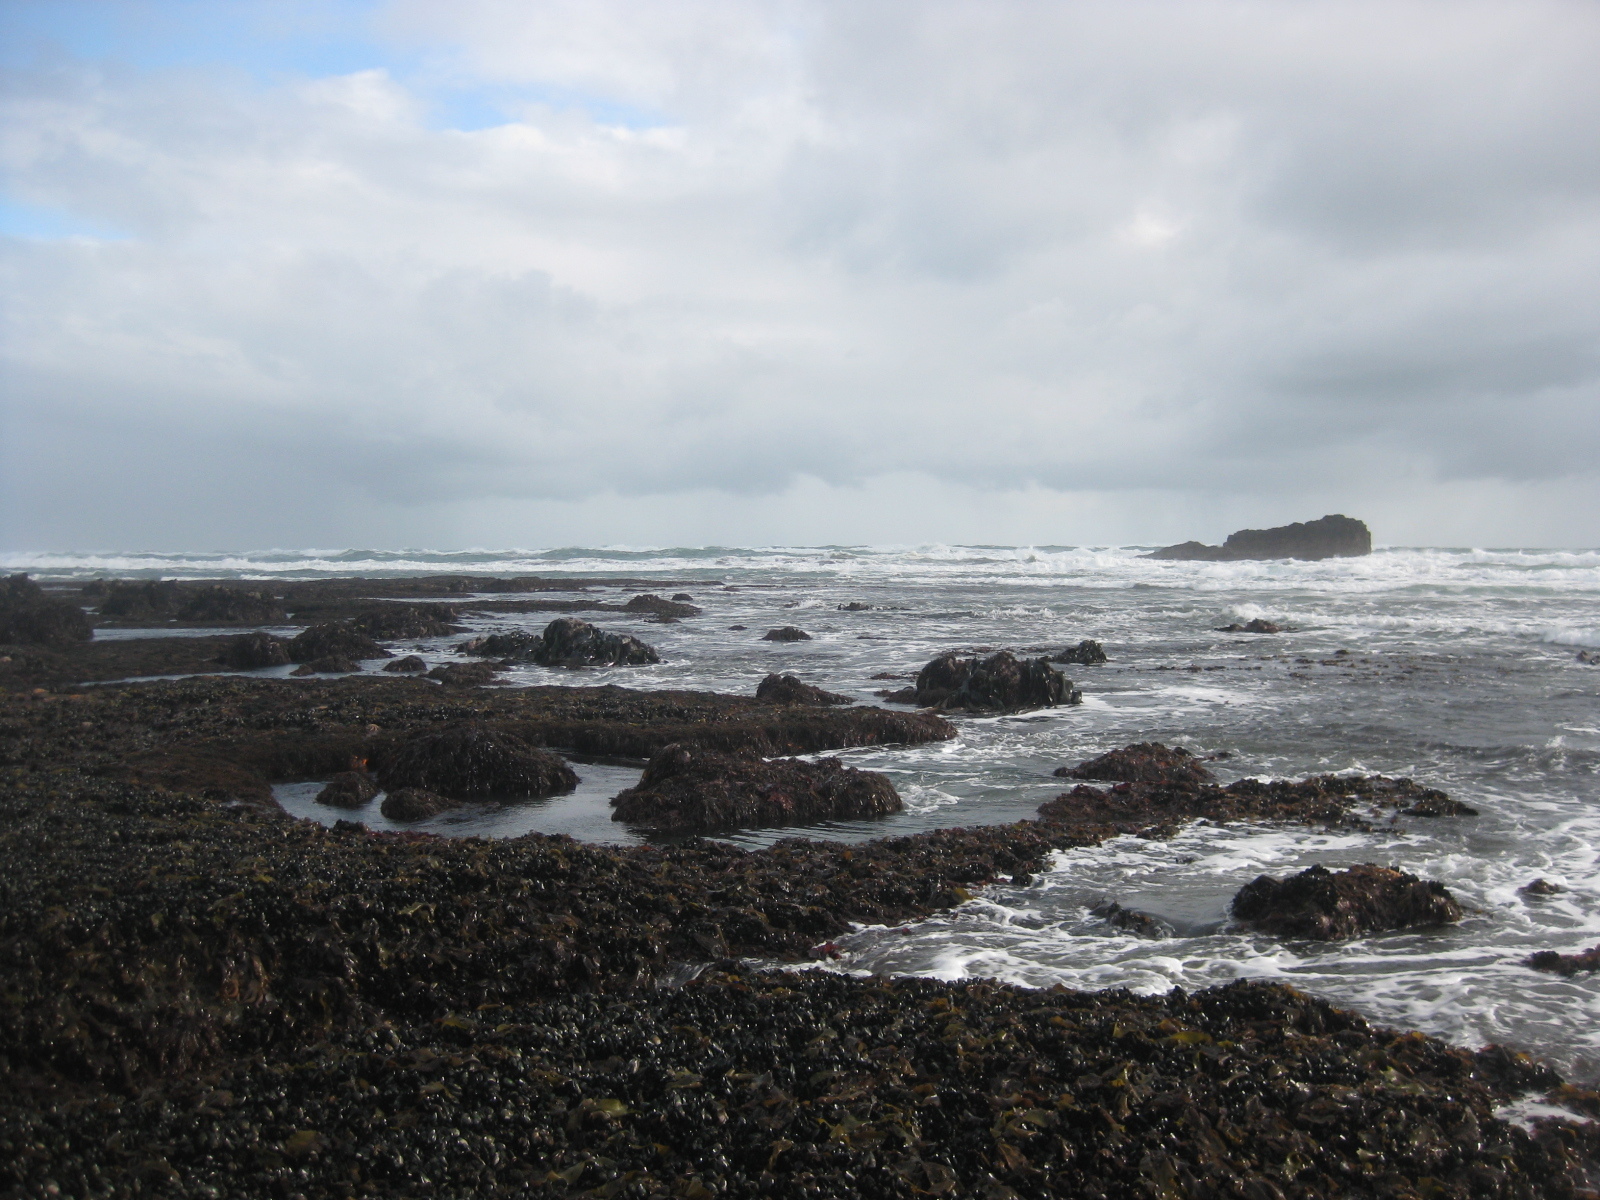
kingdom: Animalia
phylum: Mollusca
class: Bivalvia
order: Mytilida
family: Mytilidae
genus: Perna
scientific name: Perna canaliculus
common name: New zealand greenshelltm
